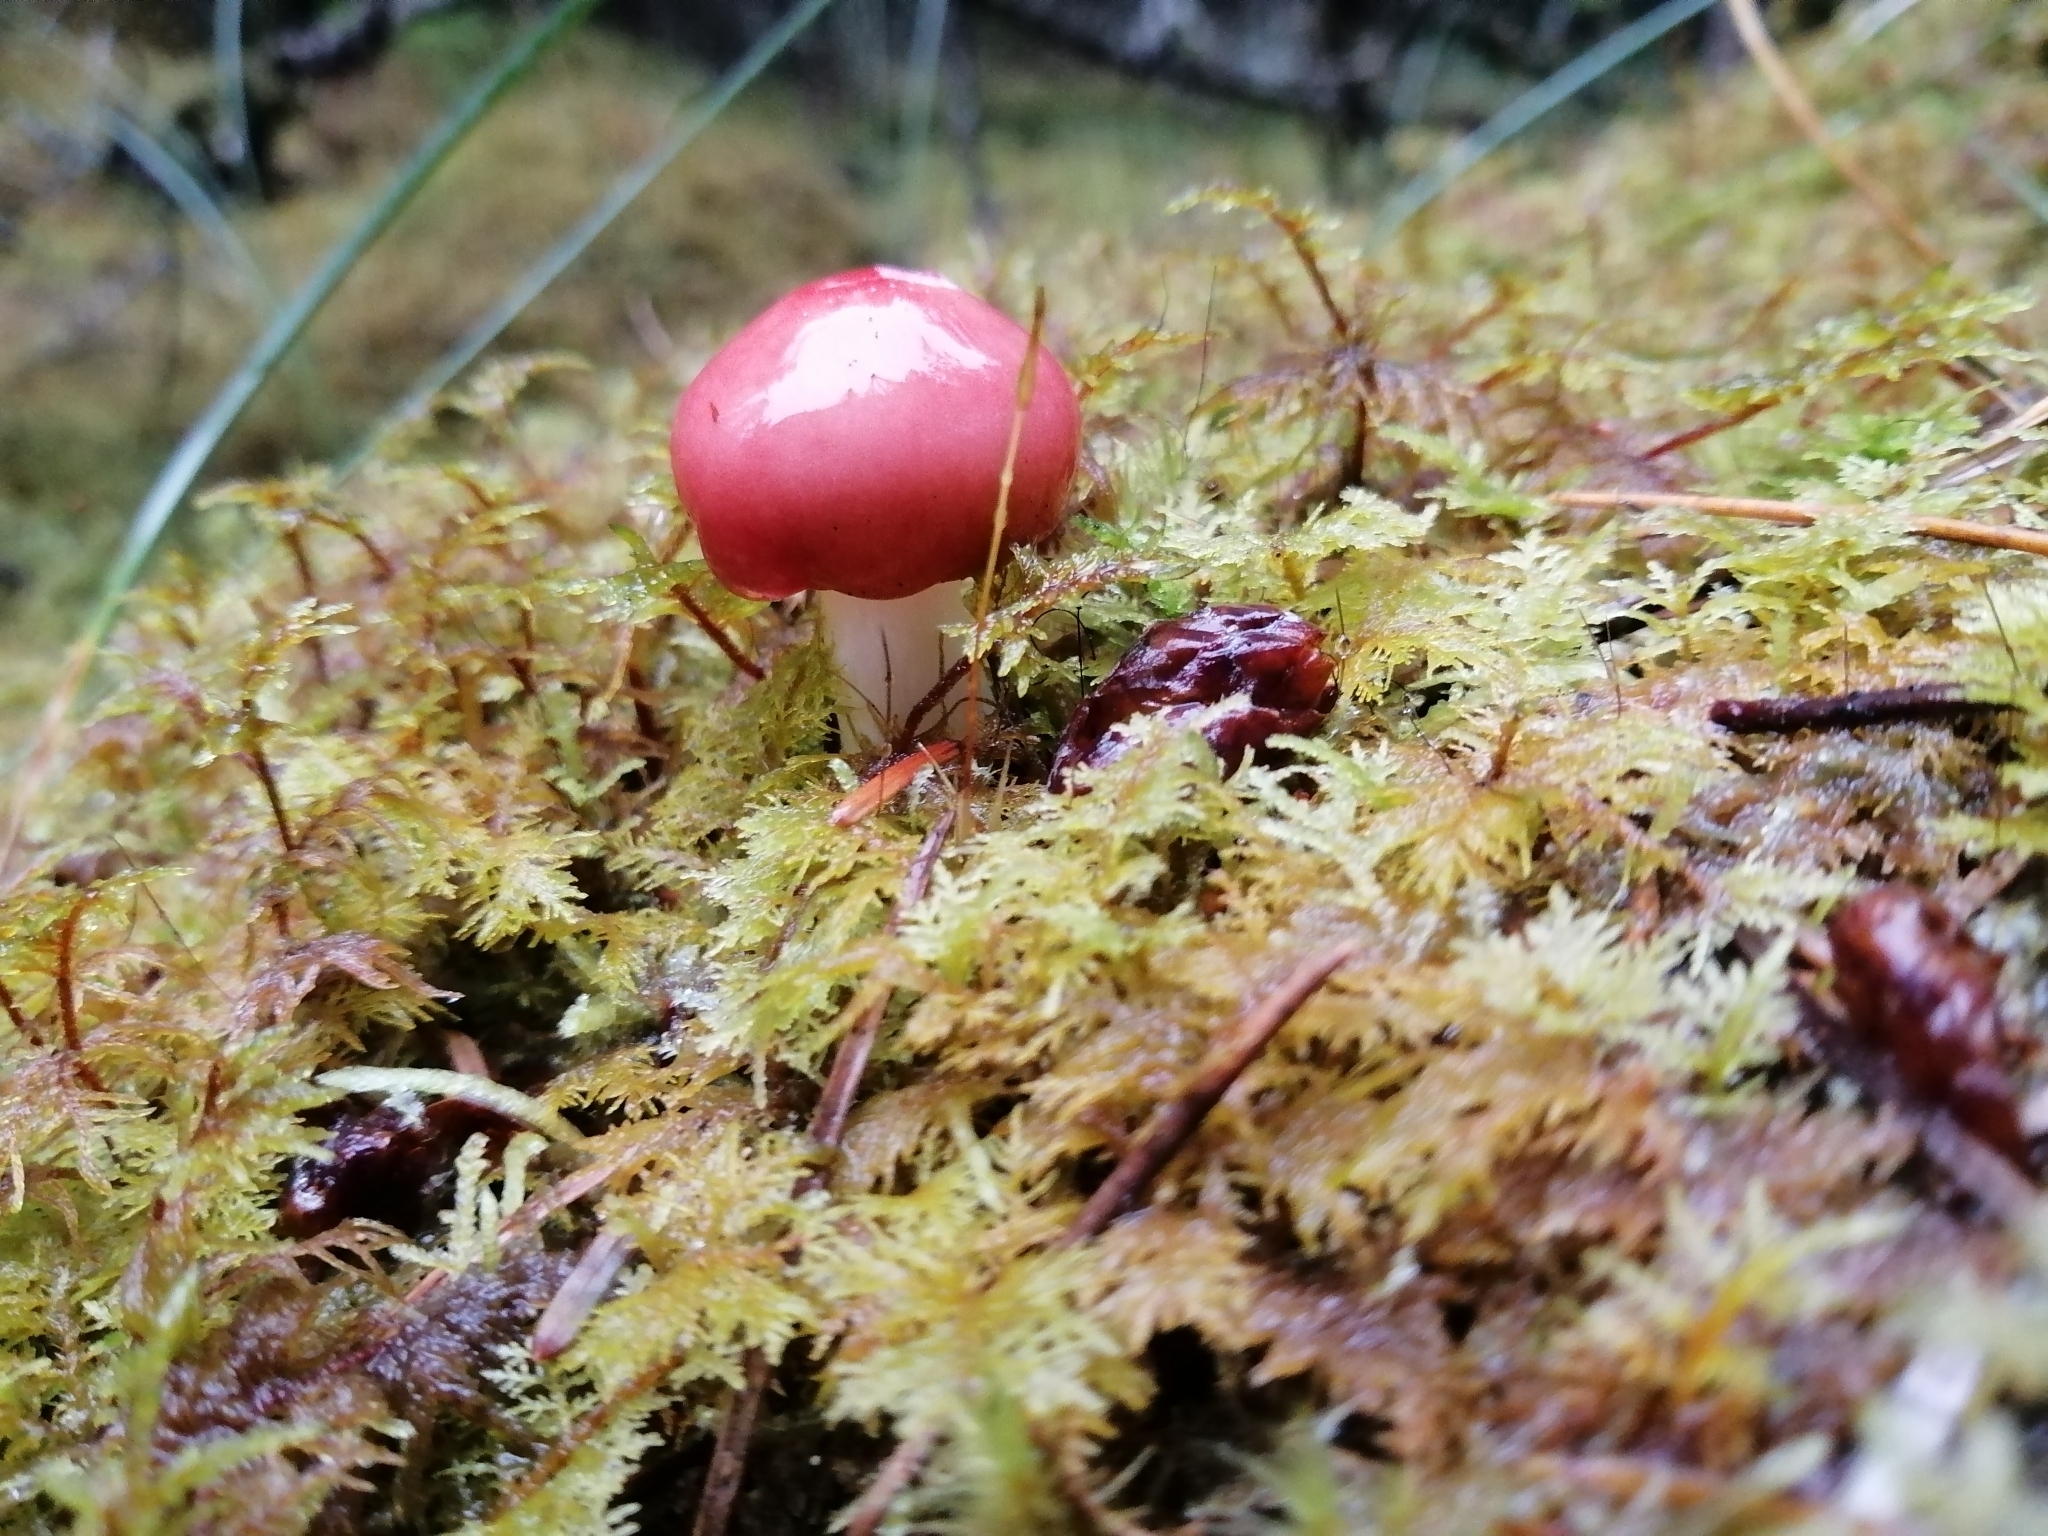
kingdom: Fungi
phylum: Basidiomycota
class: Agaricomycetes
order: Russulales
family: Russulaceae
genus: Russula
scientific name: Russula
